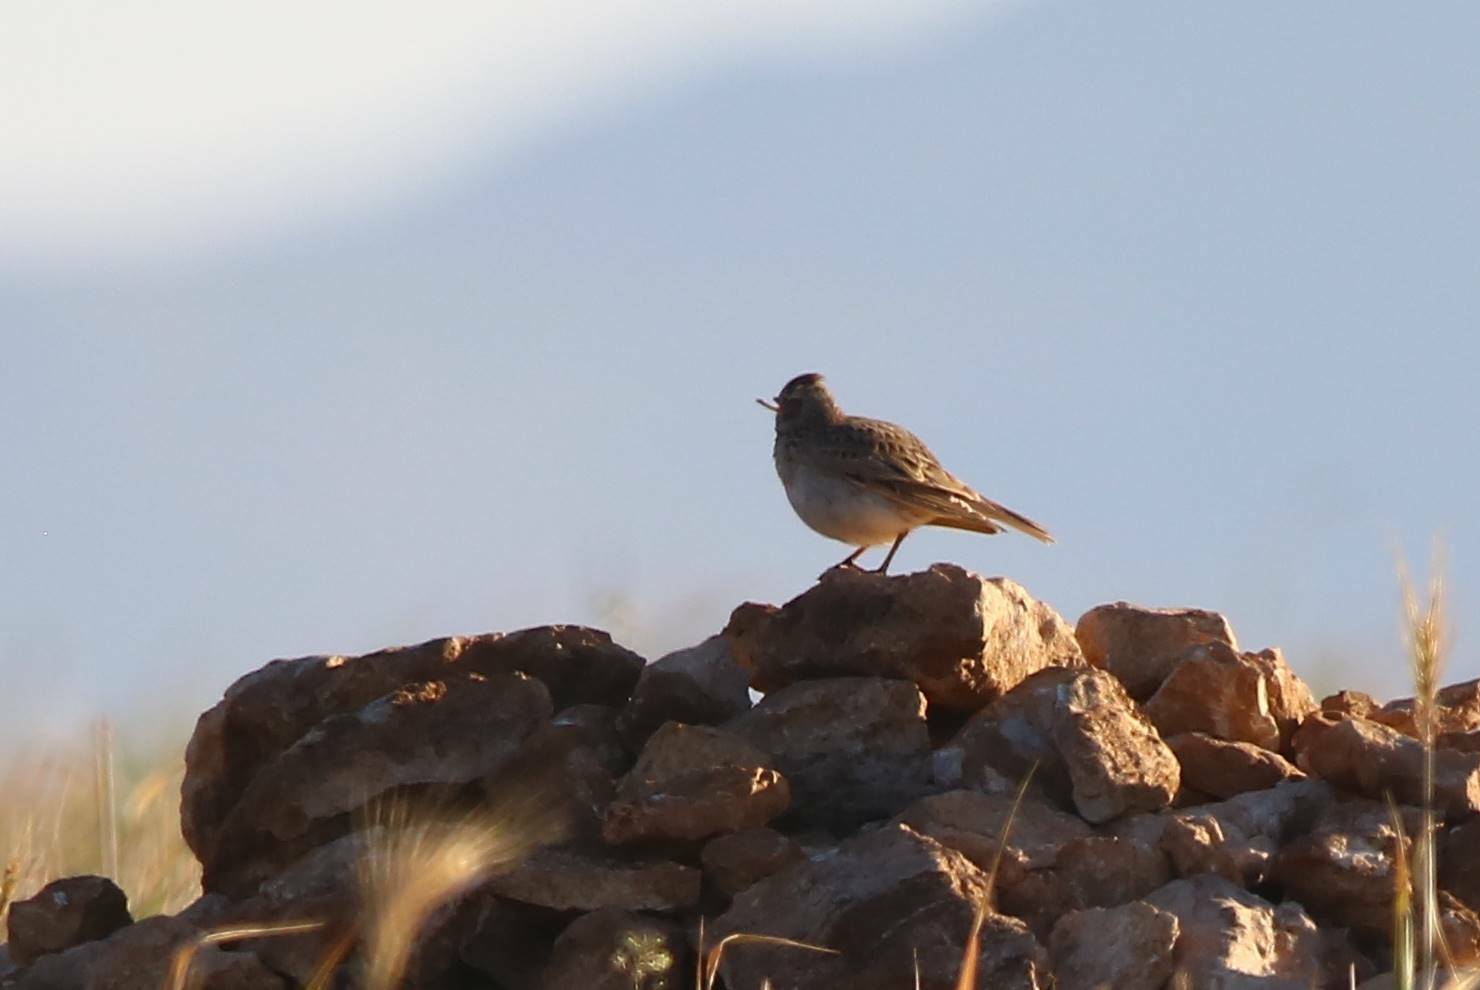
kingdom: Animalia
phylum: Chordata
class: Aves
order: Passeriformes
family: Alaudidae
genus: Galerida
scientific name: Galerida cristata
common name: Crested lark
